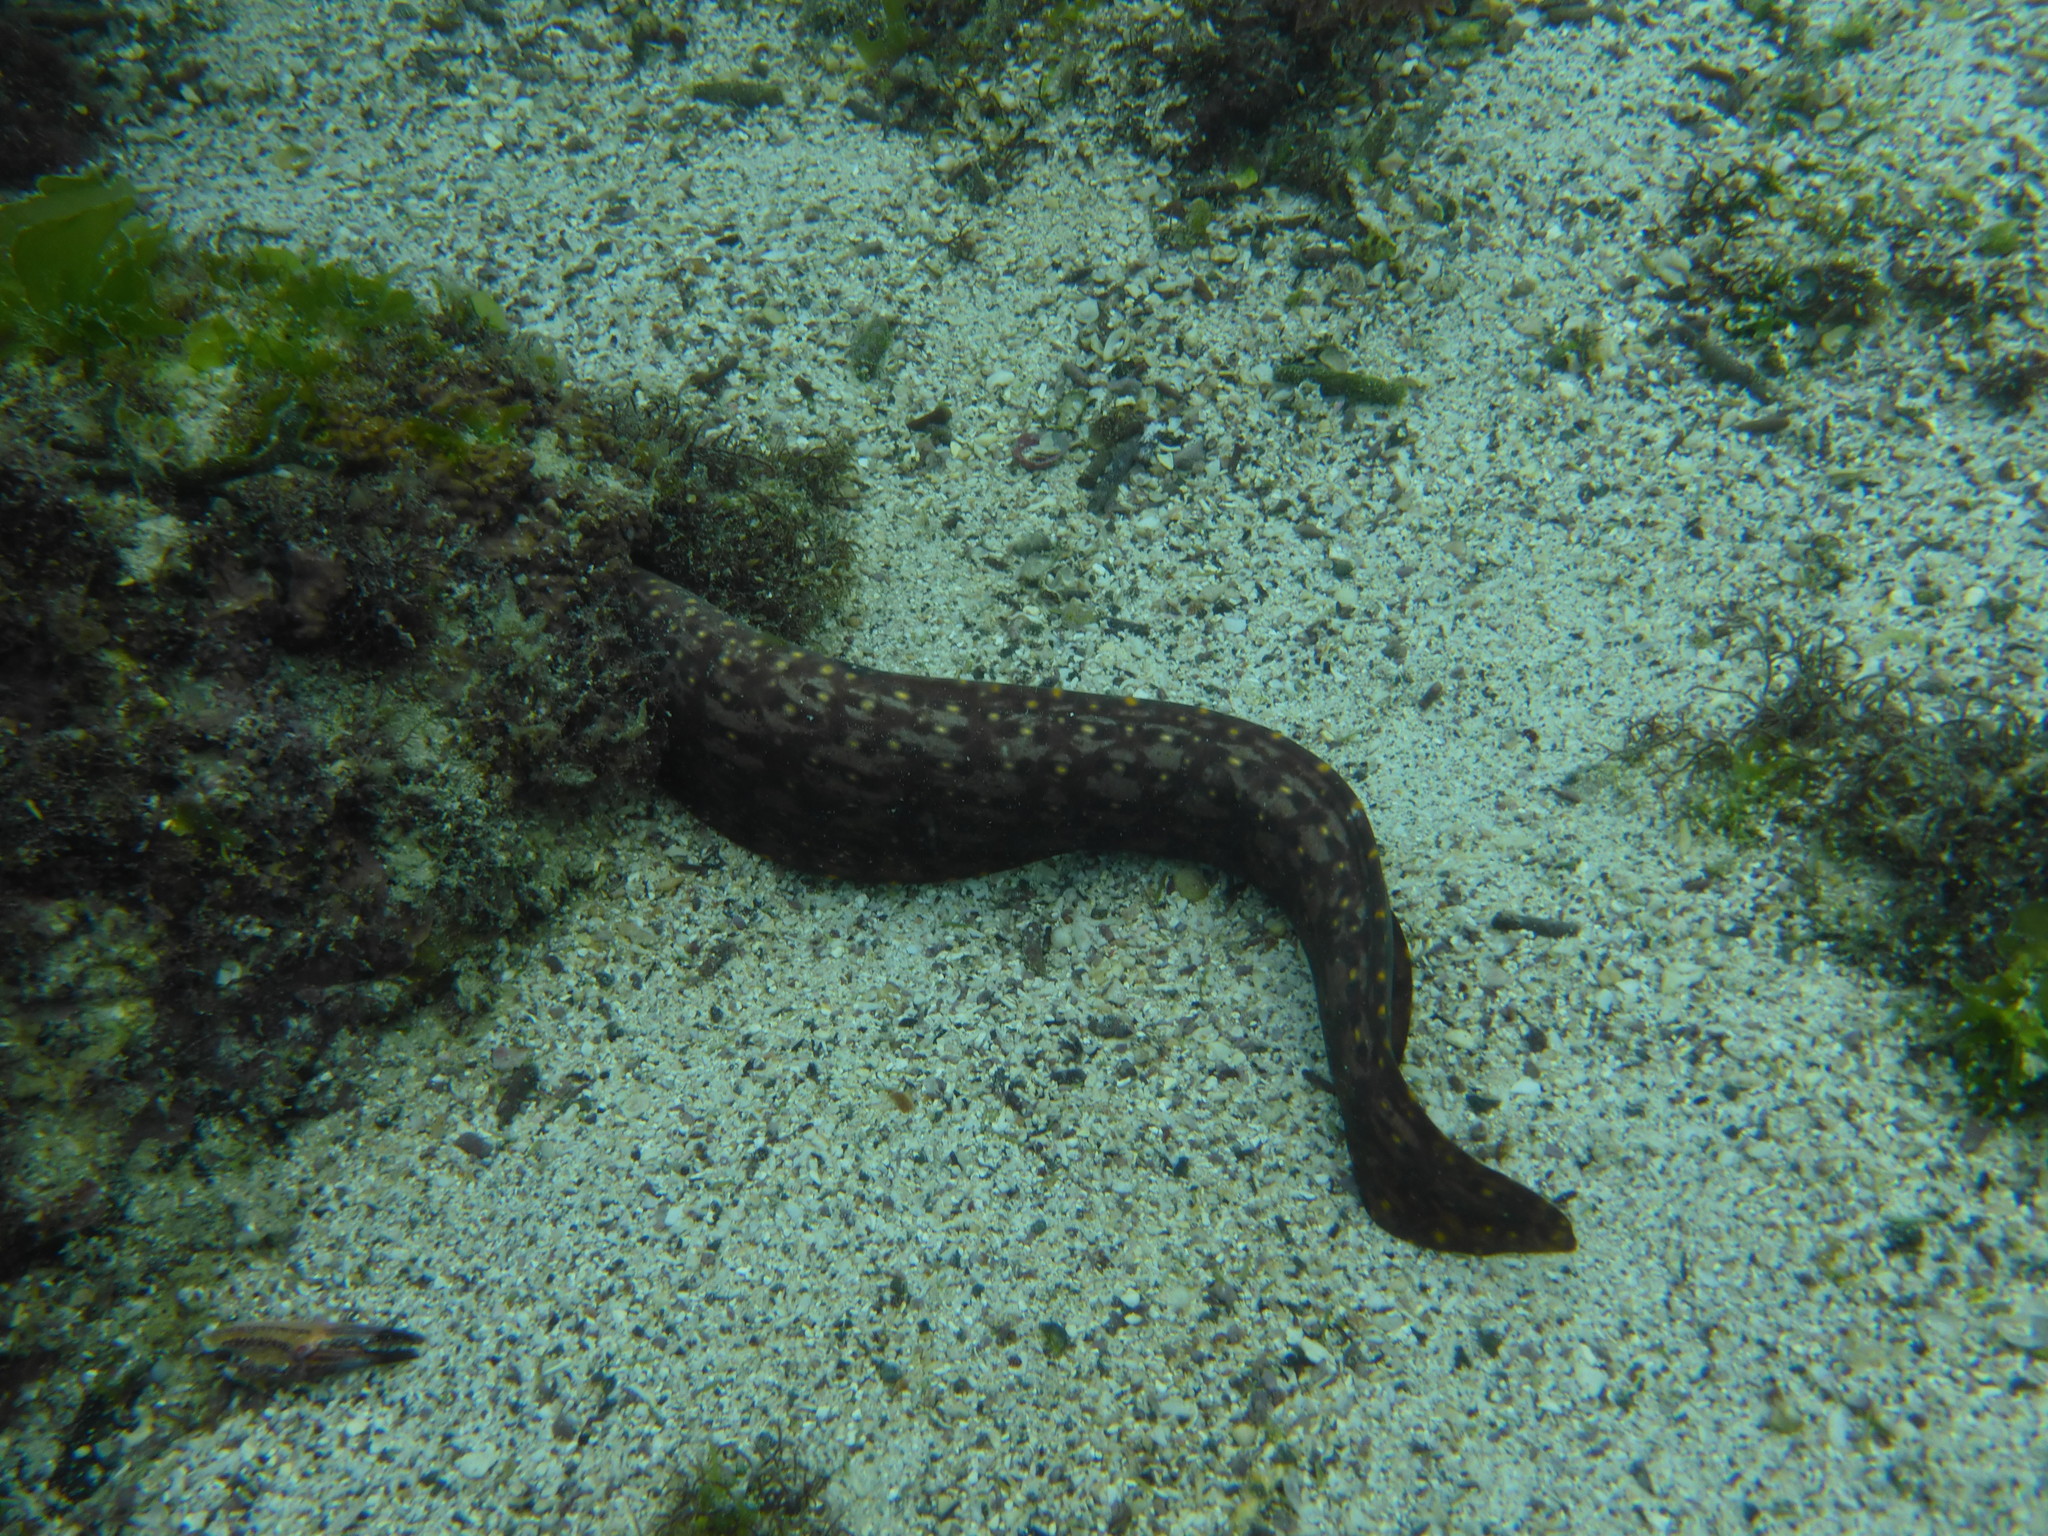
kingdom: Animalia
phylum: Chordata
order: Anguilliformes
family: Muraenidae
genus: Muraena
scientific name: Muraena lentiginosa
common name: Jewel moray
